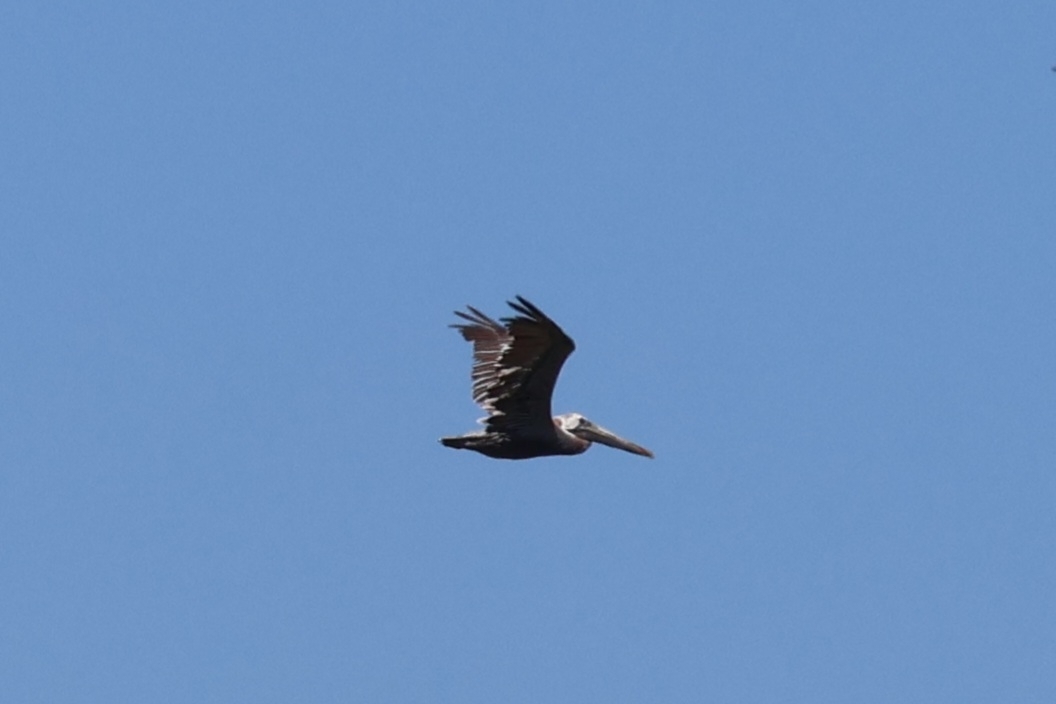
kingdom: Animalia
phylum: Chordata
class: Aves
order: Pelecaniformes
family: Pelecanidae
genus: Pelecanus
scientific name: Pelecanus occidentalis
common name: Brown pelican
